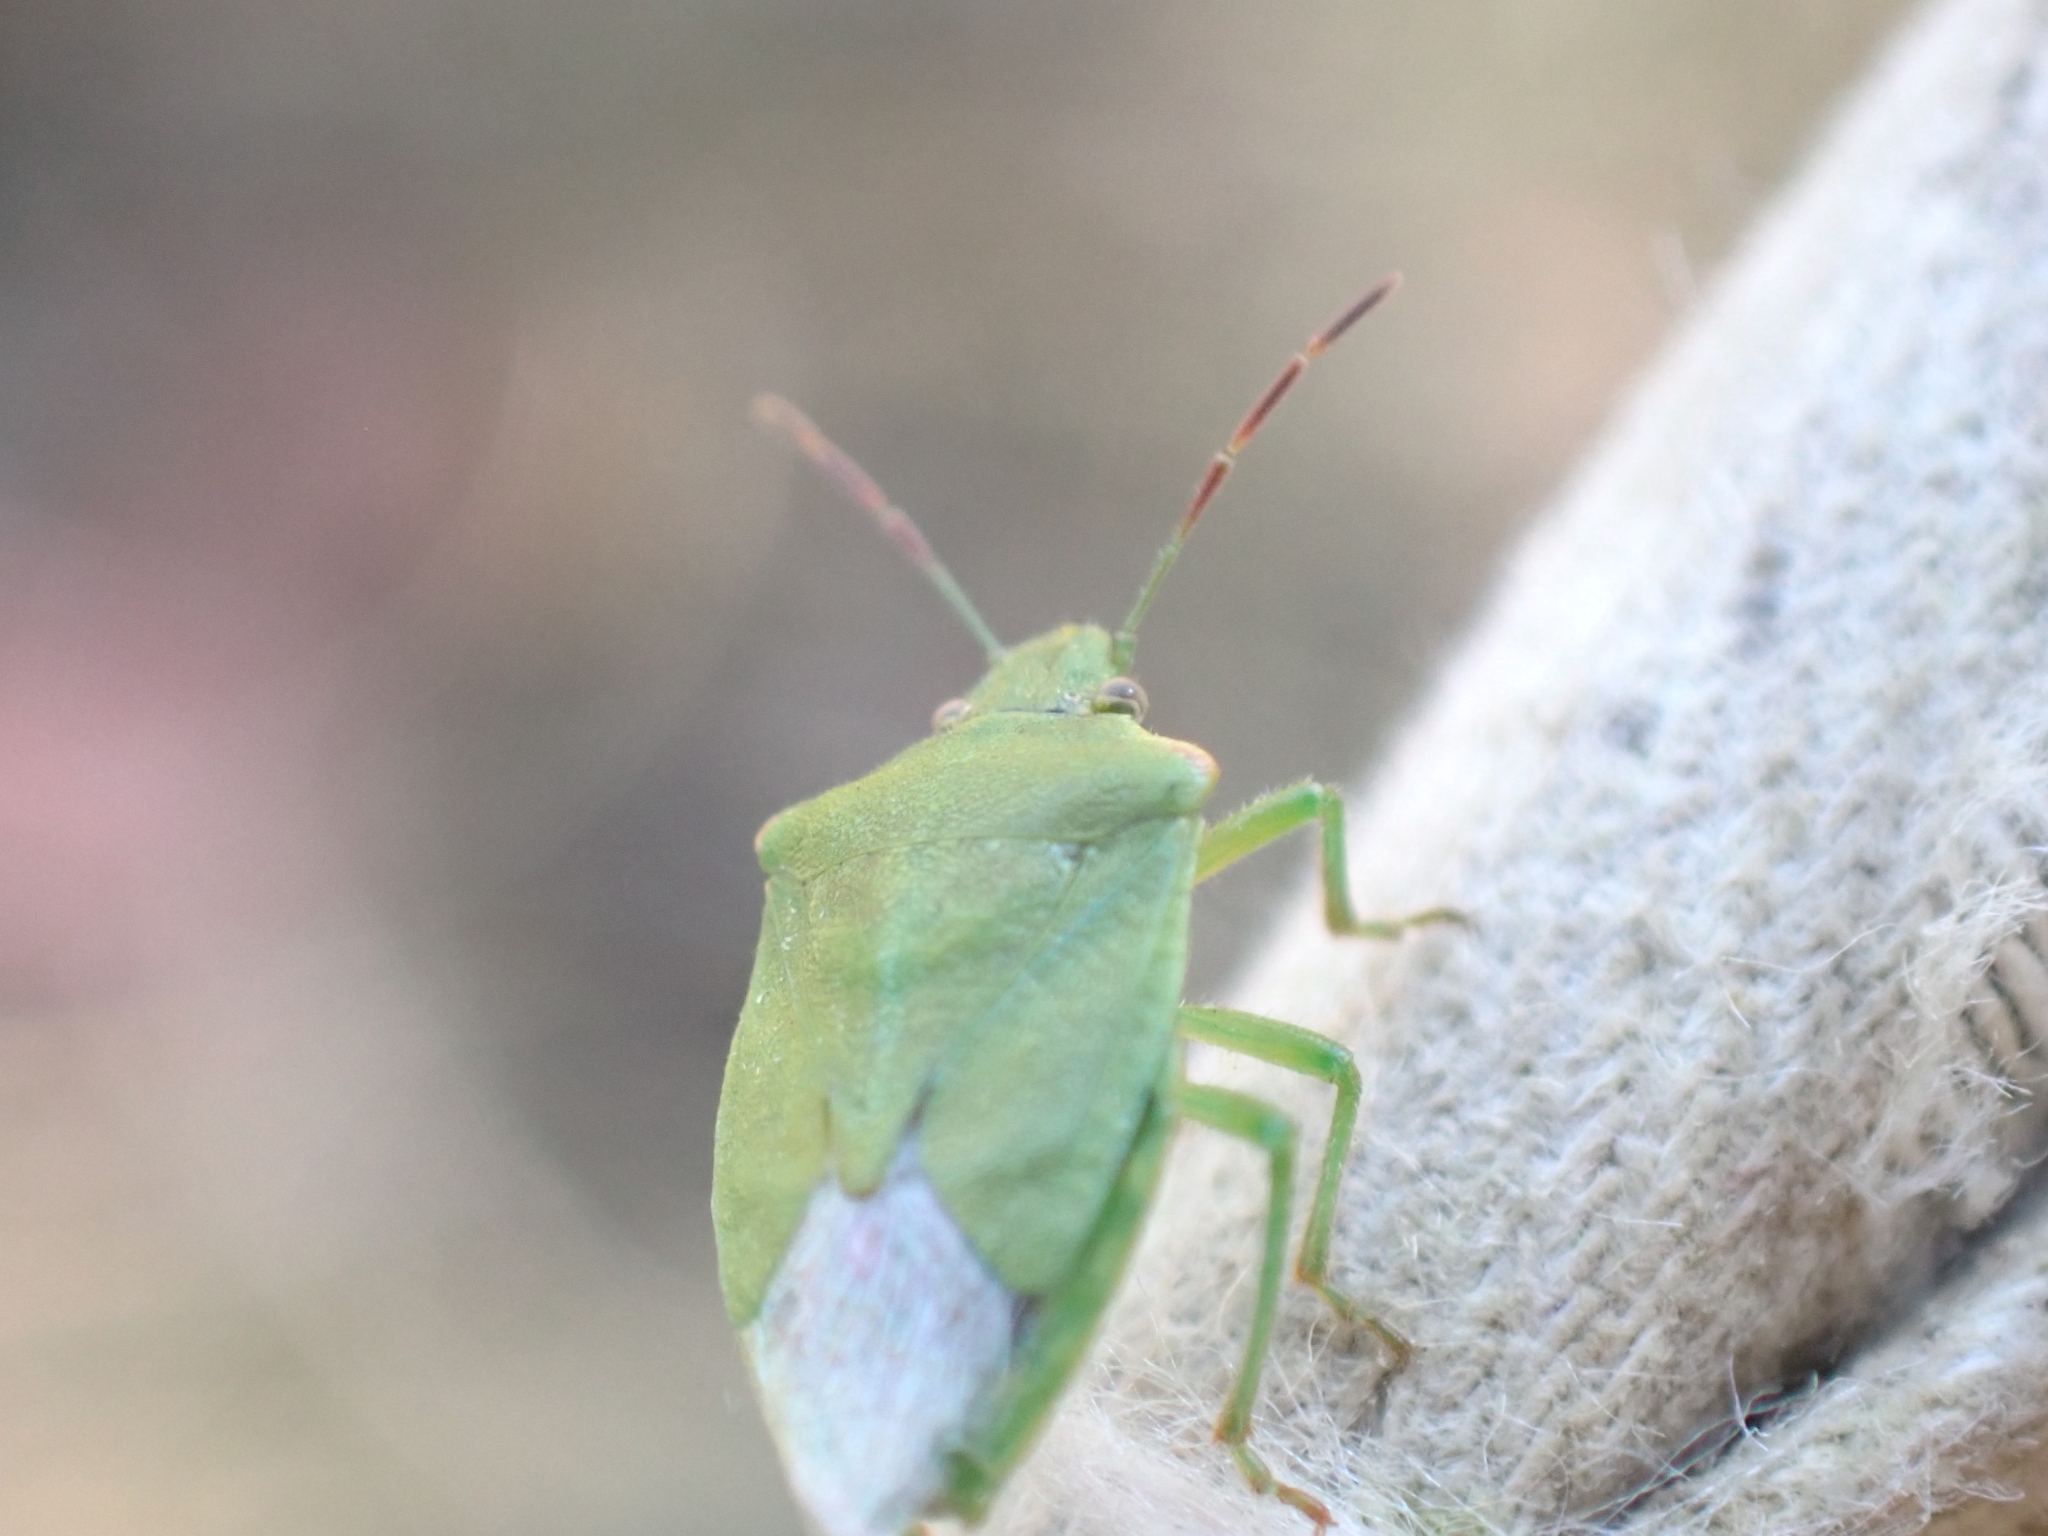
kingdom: Animalia
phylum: Arthropoda
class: Insecta
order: Hemiptera
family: Pentatomidae
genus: Thyanta
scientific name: Thyanta pallidovirens
